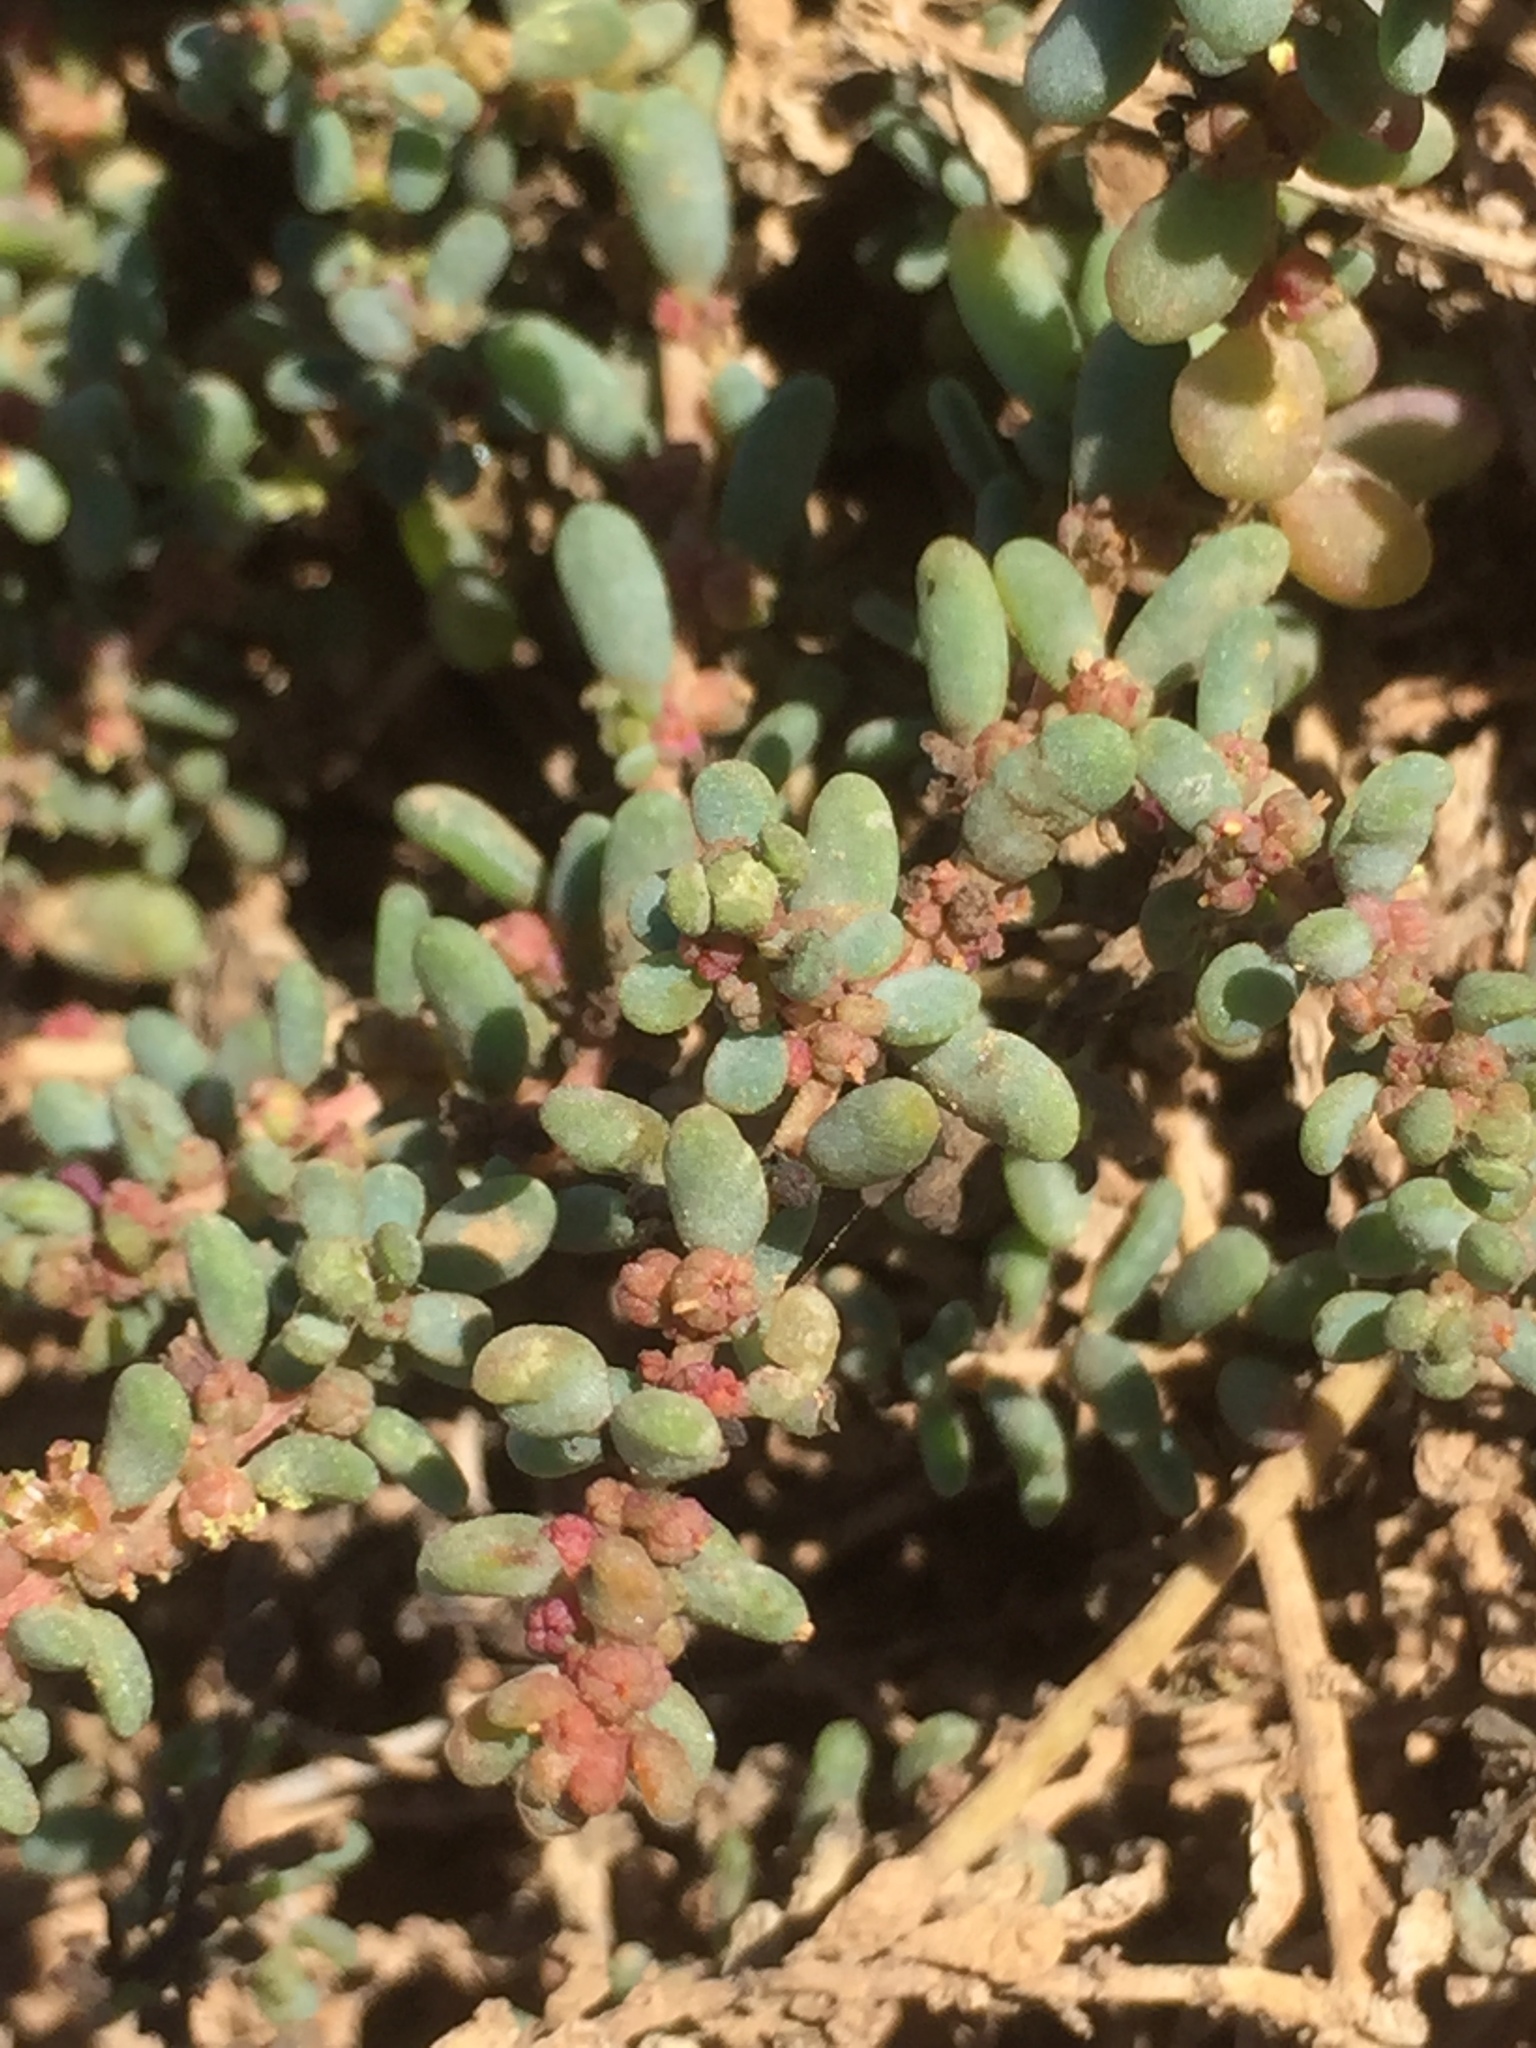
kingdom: Plantae
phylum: Tracheophyta
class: Magnoliopsida
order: Caryophyllales
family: Amaranthaceae
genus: Suaeda
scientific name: Suaeda vermiculata
